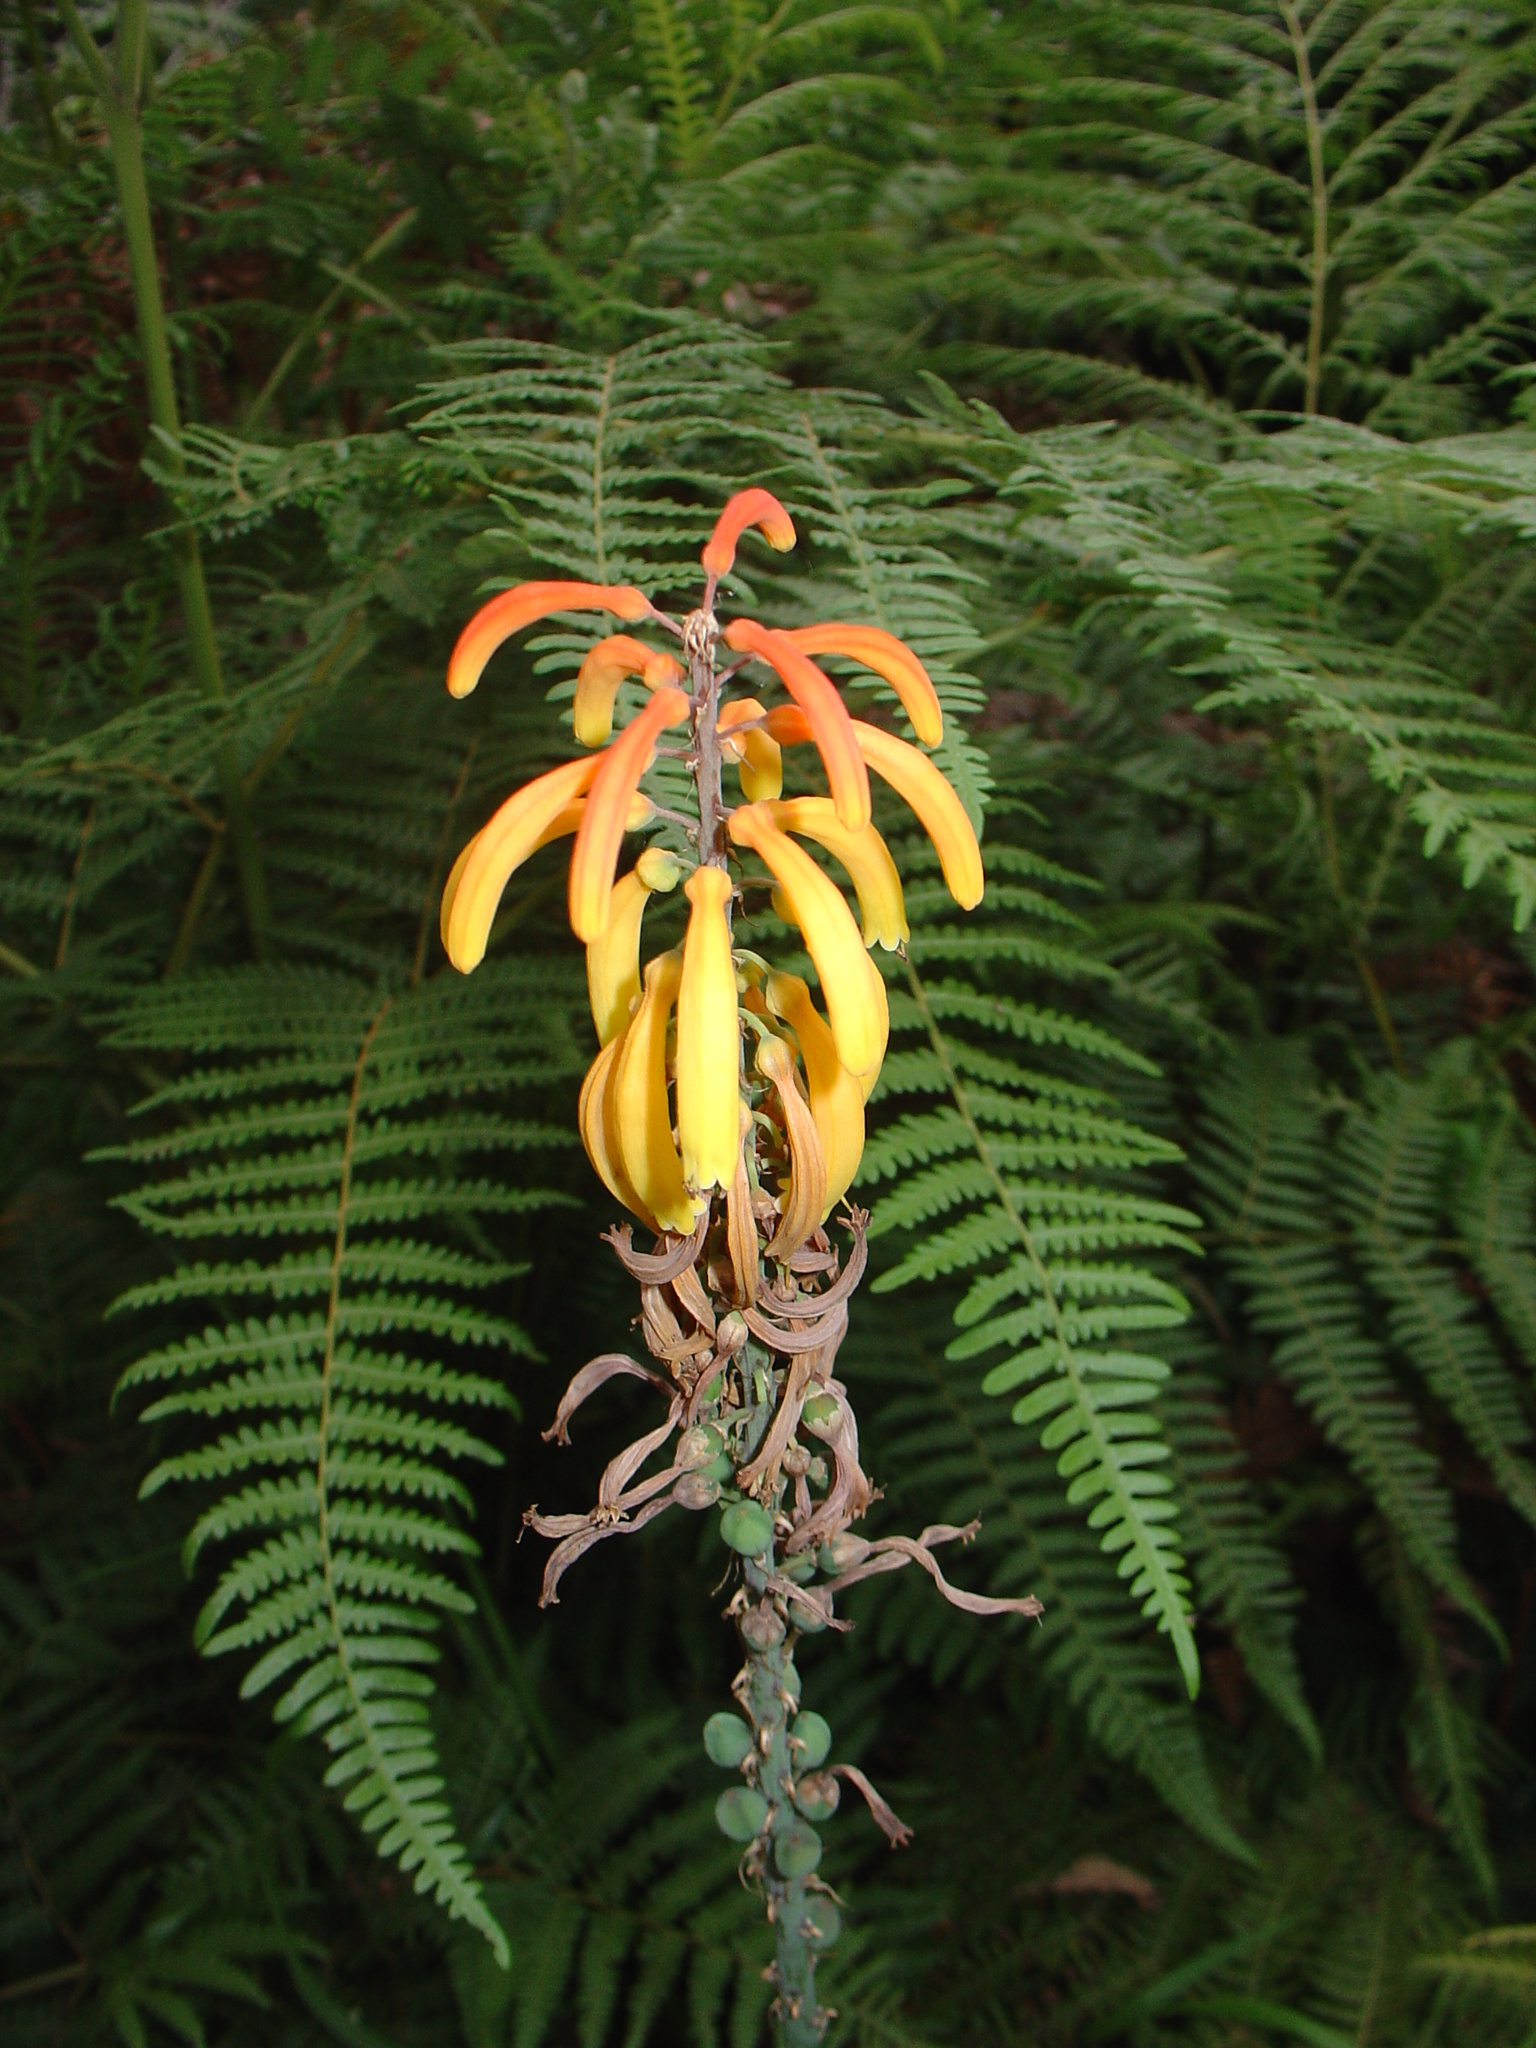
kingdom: Plantae
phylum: Tracheophyta
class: Liliopsida
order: Asparagales
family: Asphodelaceae
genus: Kniphofia
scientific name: Kniphofia thomsonii
